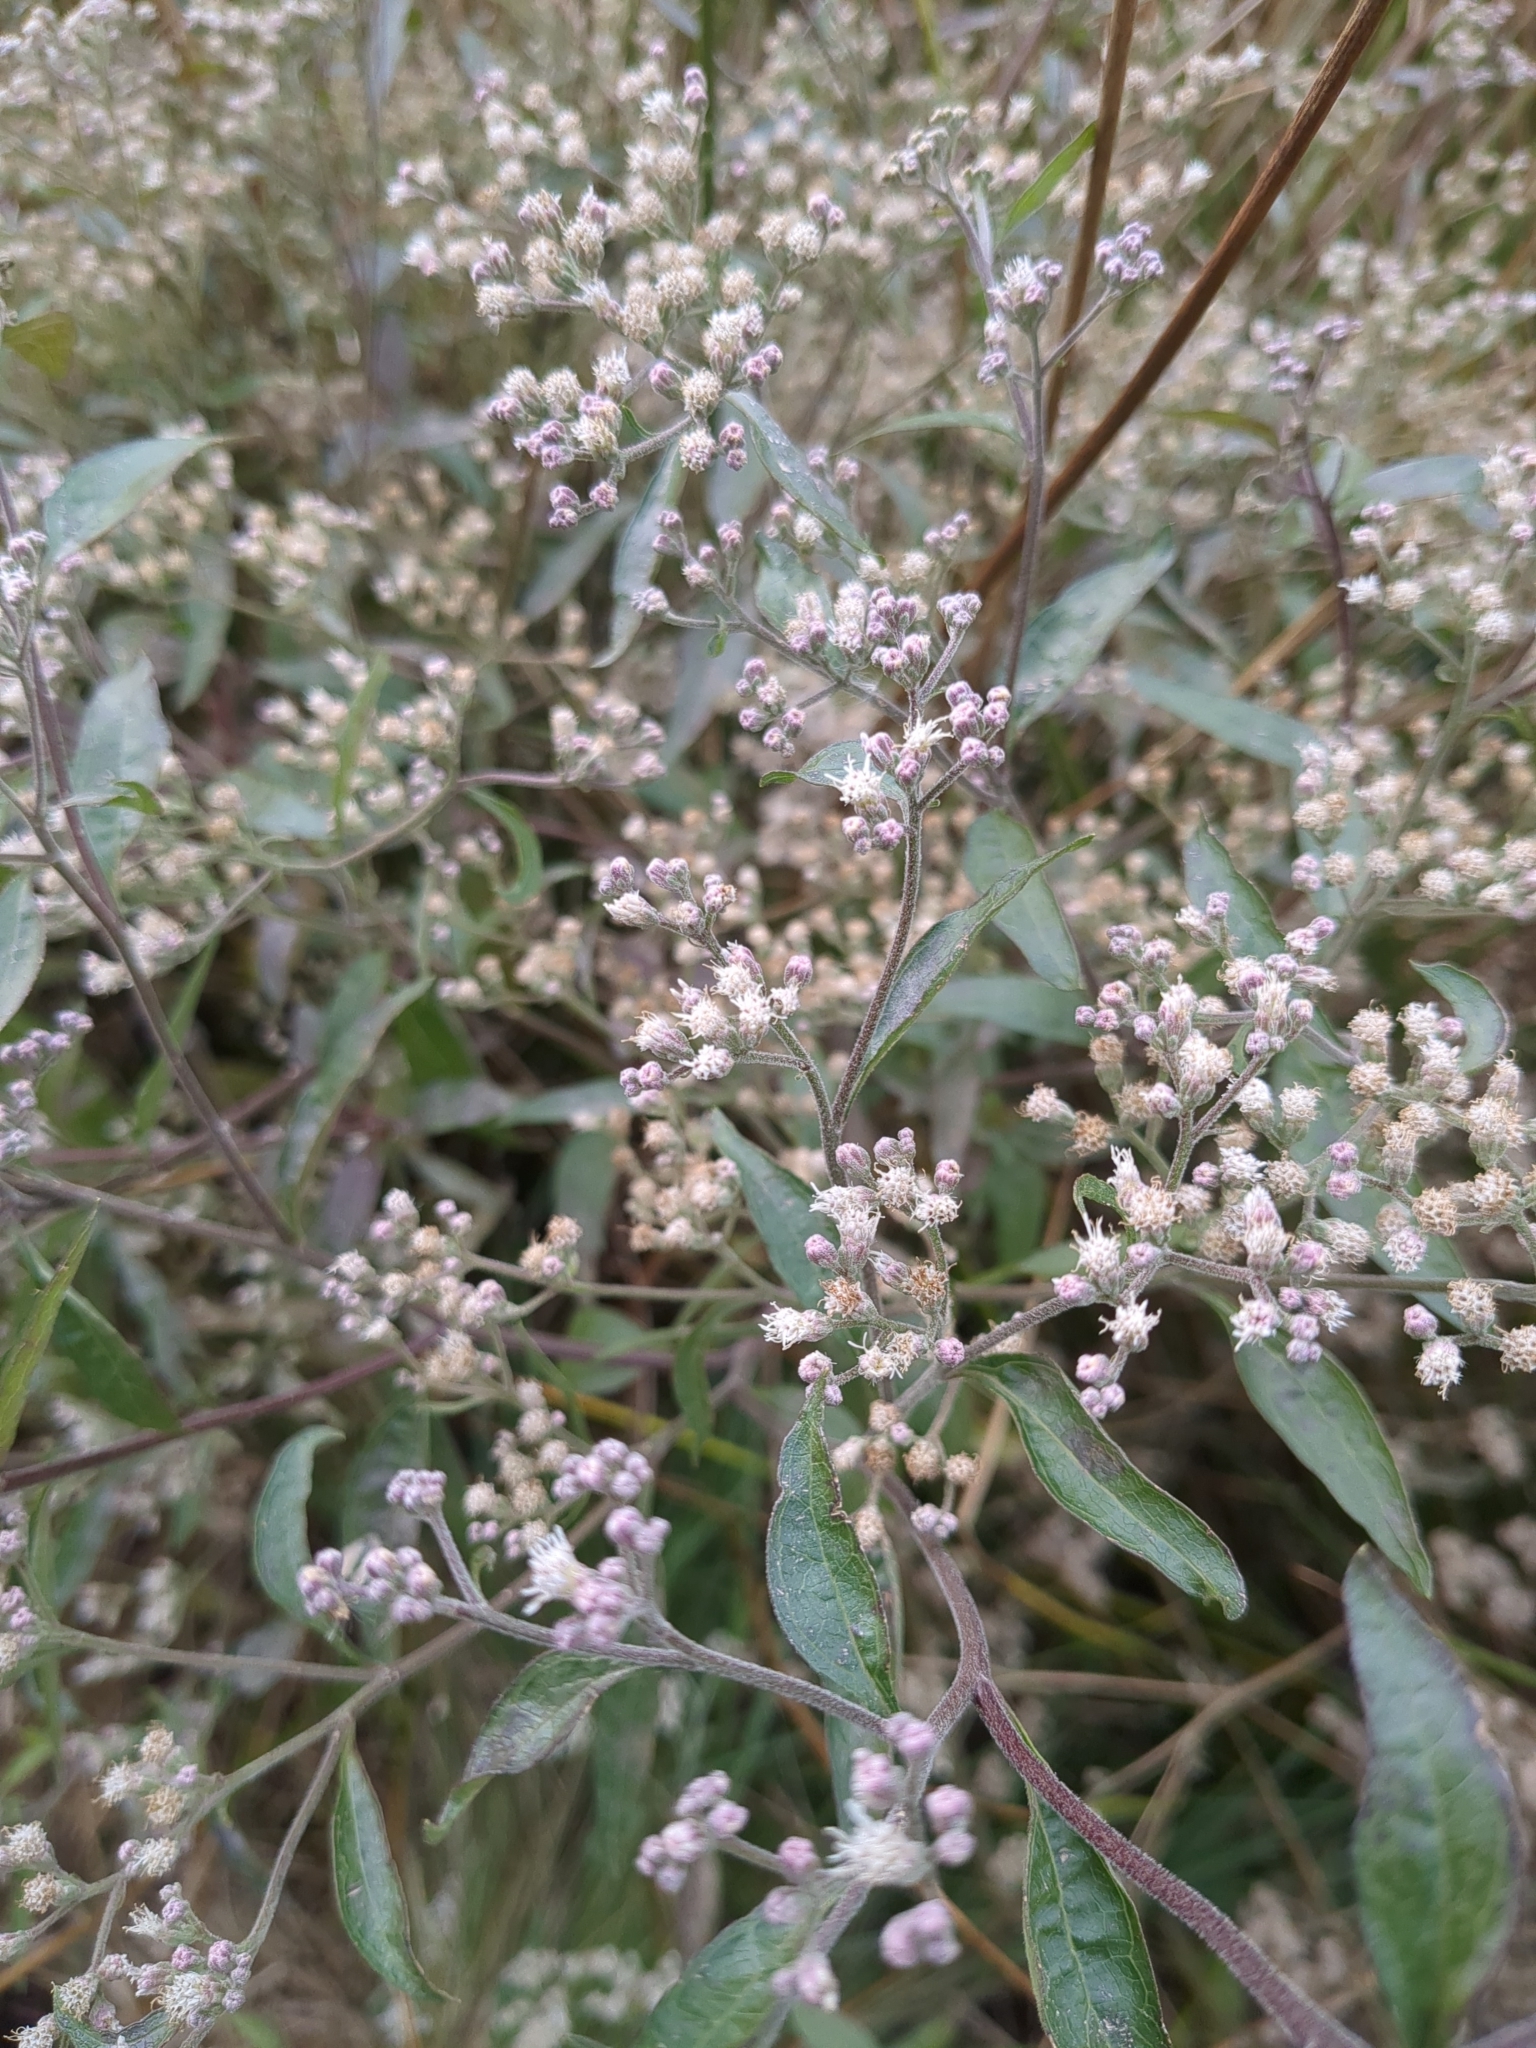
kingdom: Plantae
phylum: Tracheophyta
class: Magnoliopsida
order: Asterales
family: Asteraceae
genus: Eupatorium
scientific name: Eupatorium serotinum
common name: Late boneset
